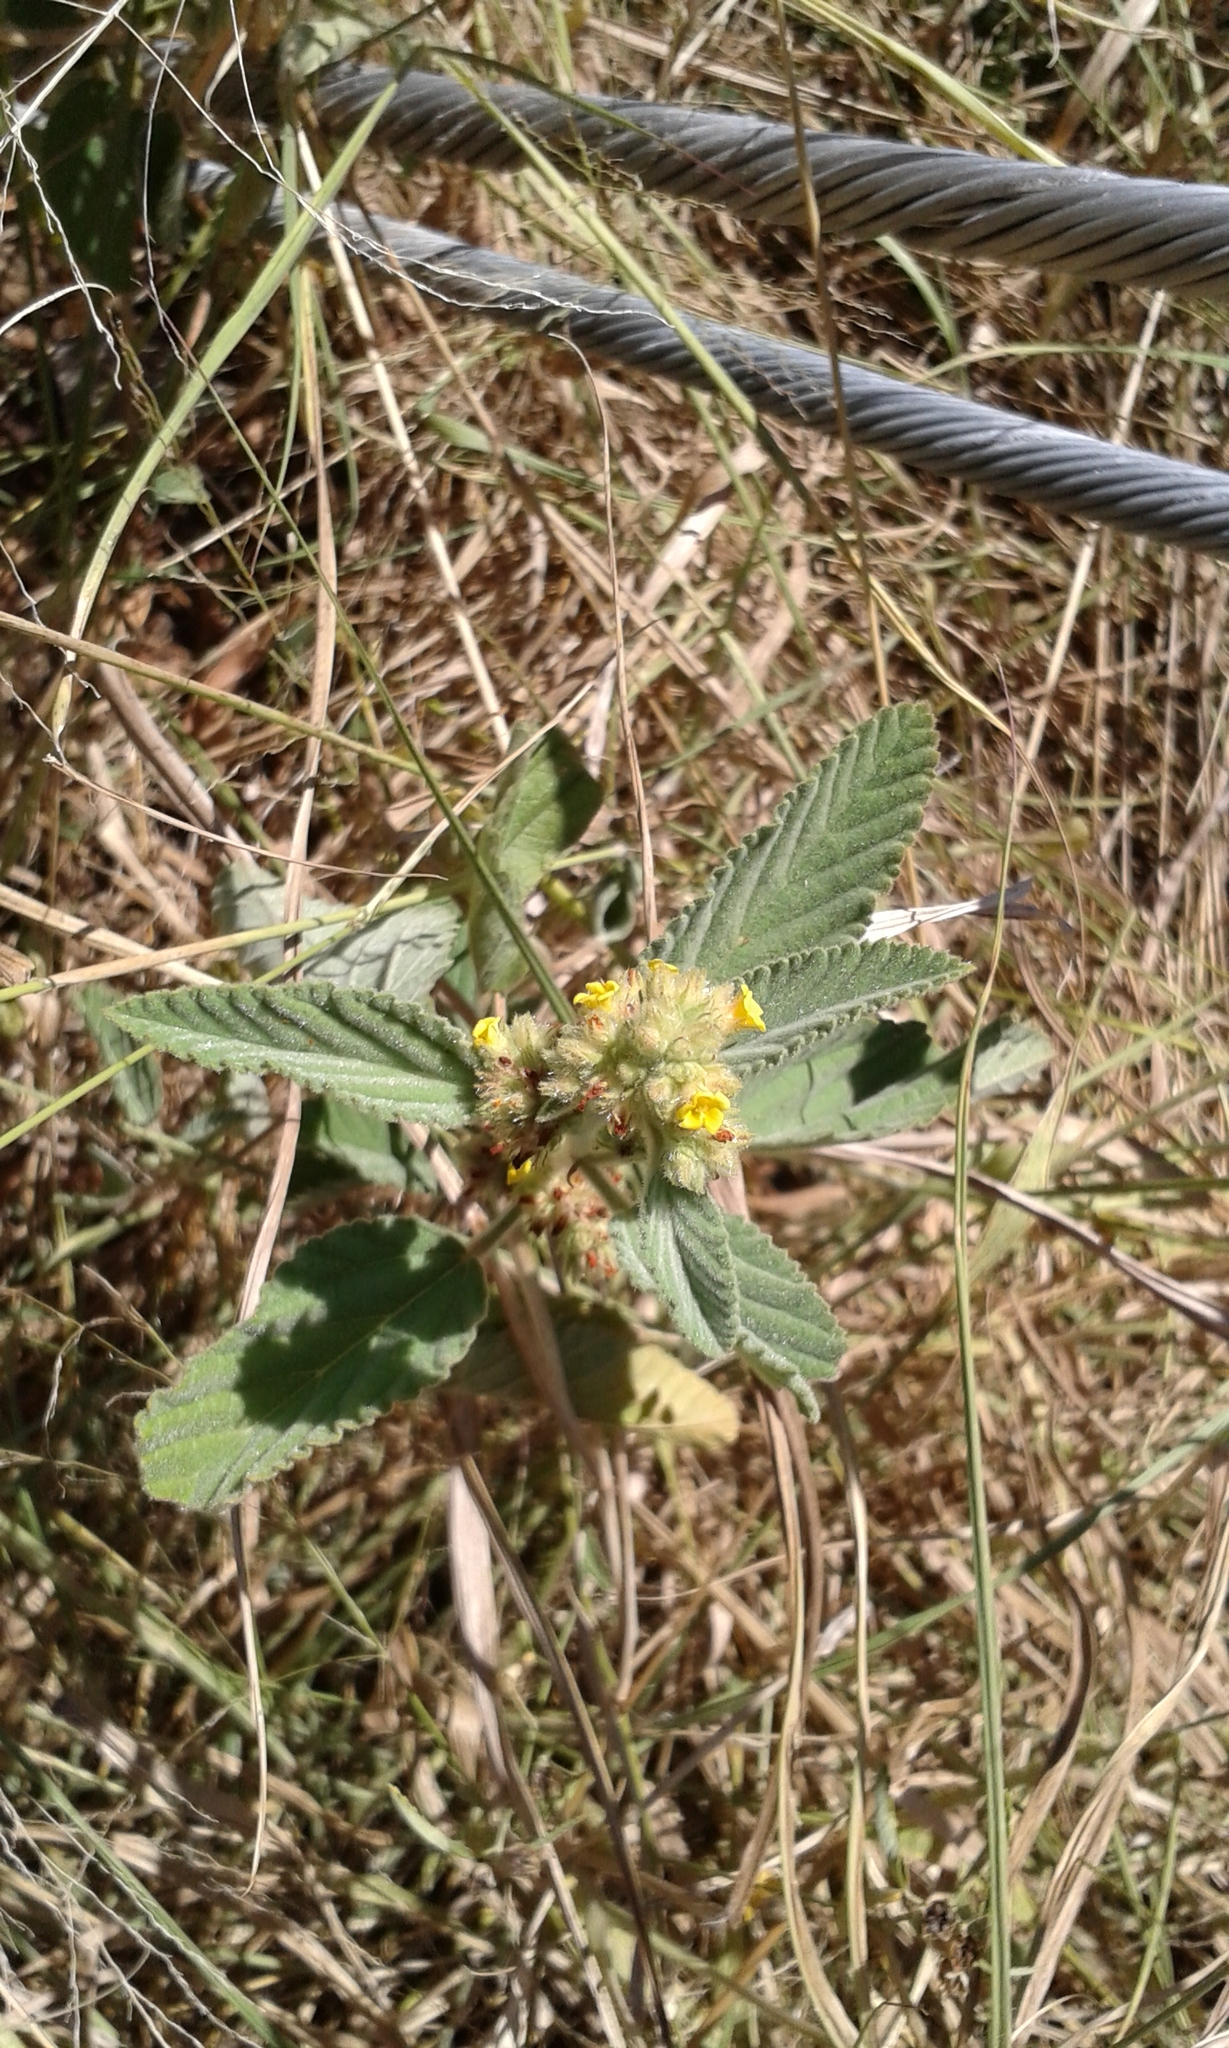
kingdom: Plantae
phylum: Tracheophyta
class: Magnoliopsida
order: Malvales
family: Malvaceae
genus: Waltheria
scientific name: Waltheria indica
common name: Leather-coat
